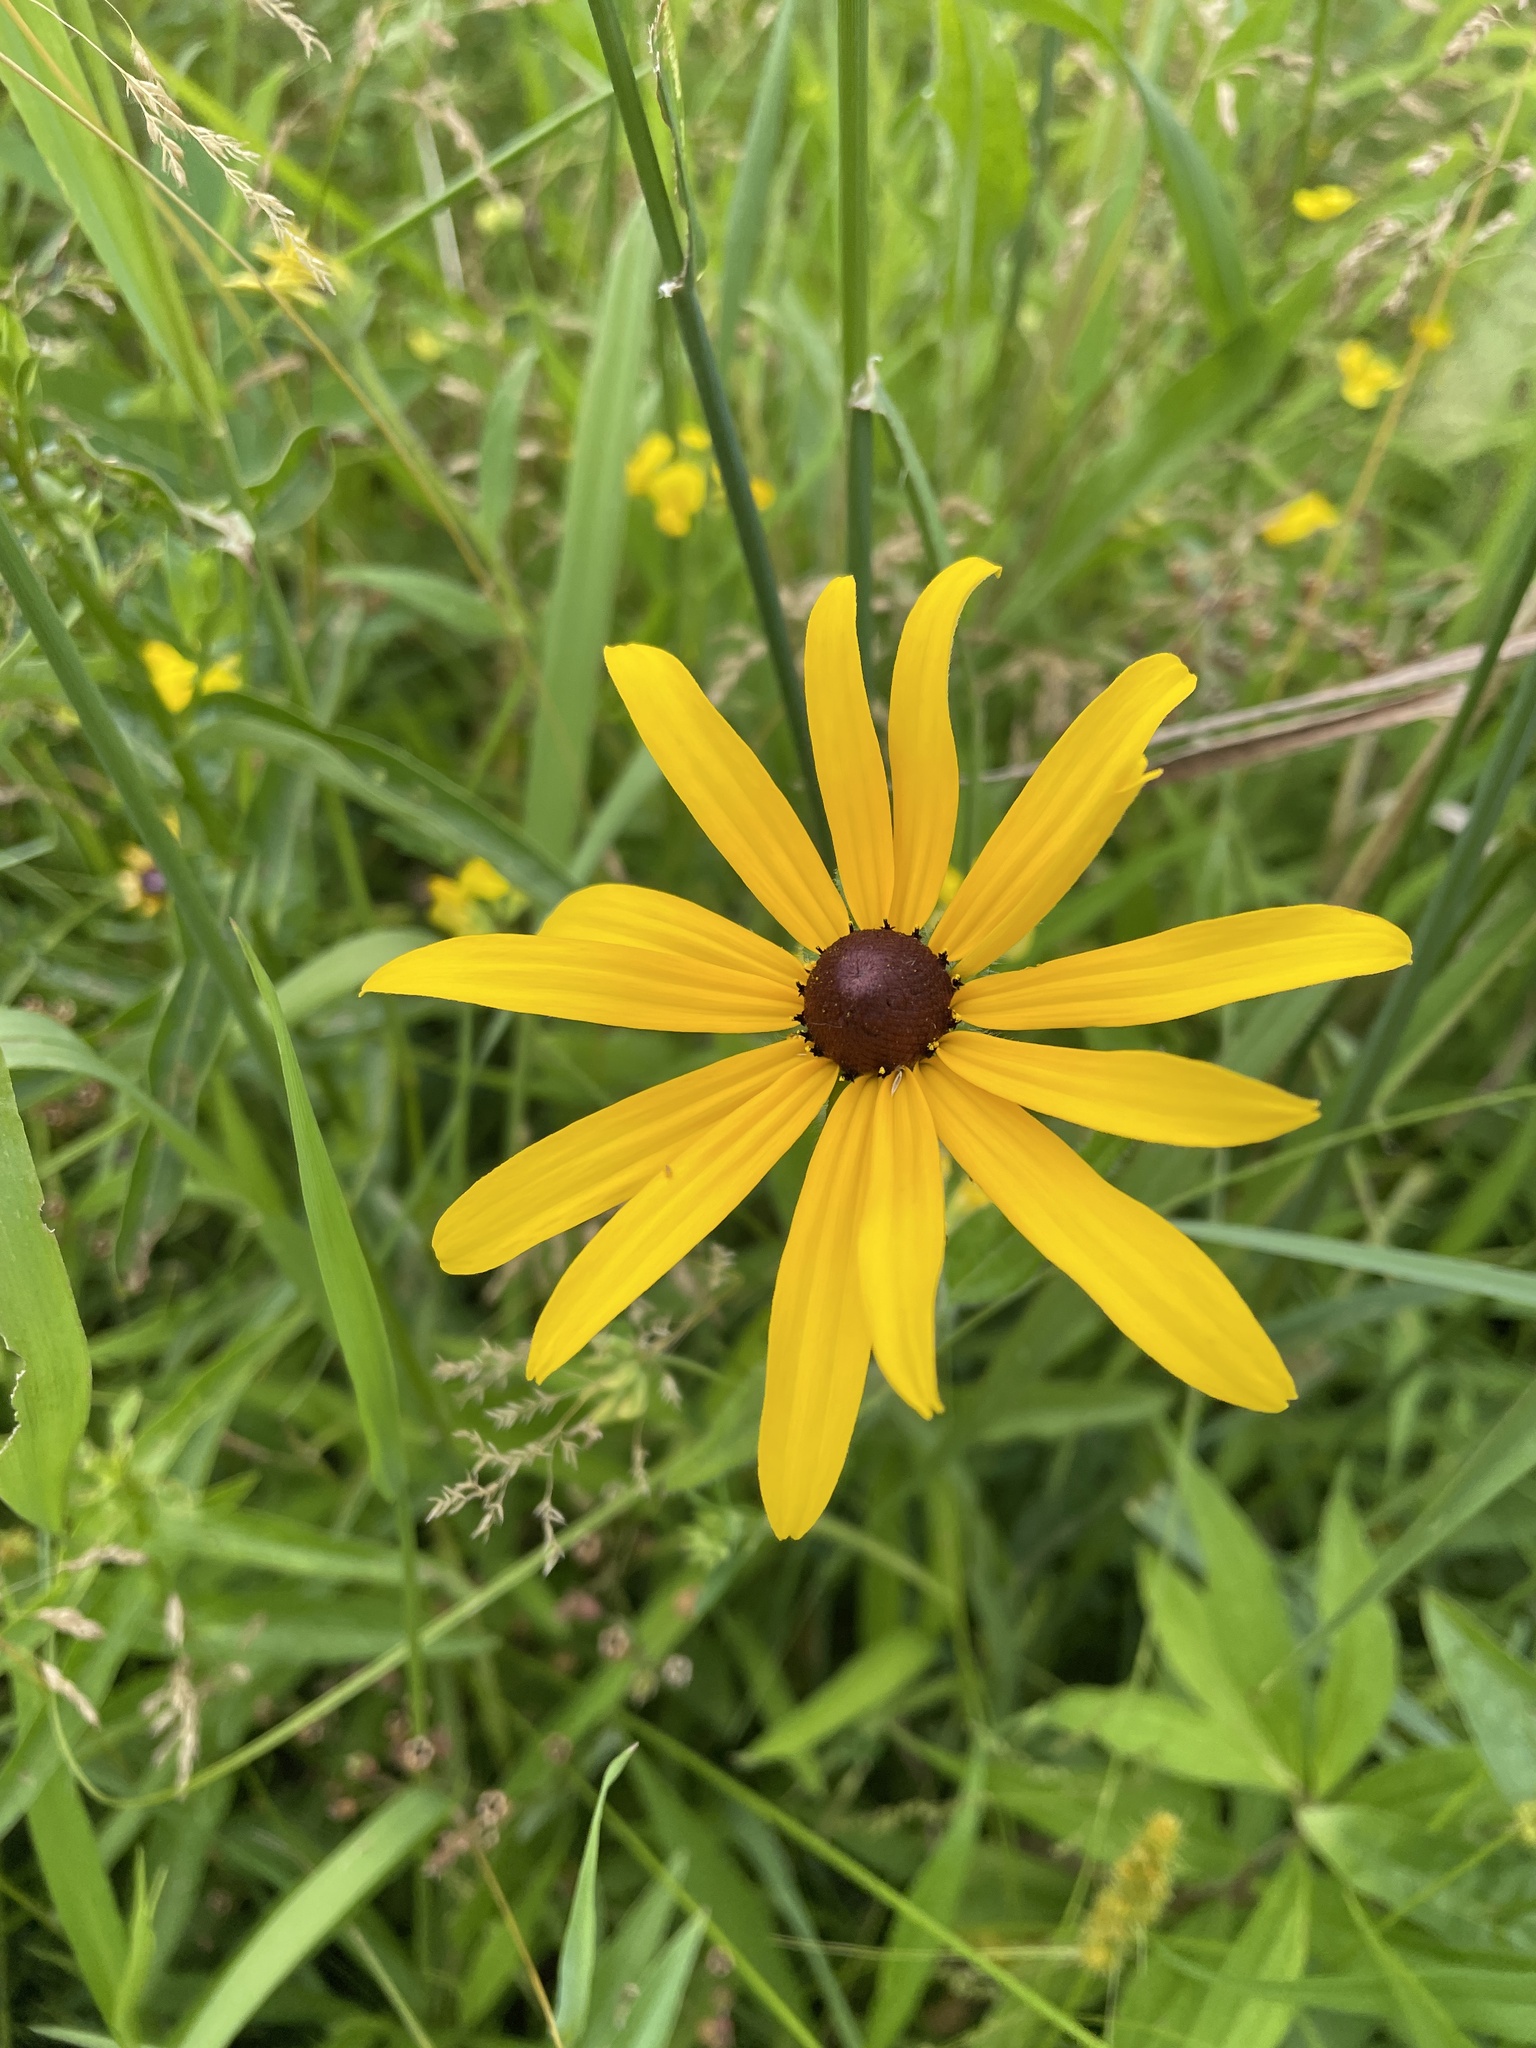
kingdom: Plantae
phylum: Tracheophyta
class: Magnoliopsida
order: Asterales
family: Asteraceae
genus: Rudbeckia
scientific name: Rudbeckia hirta
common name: Black-eyed-susan
